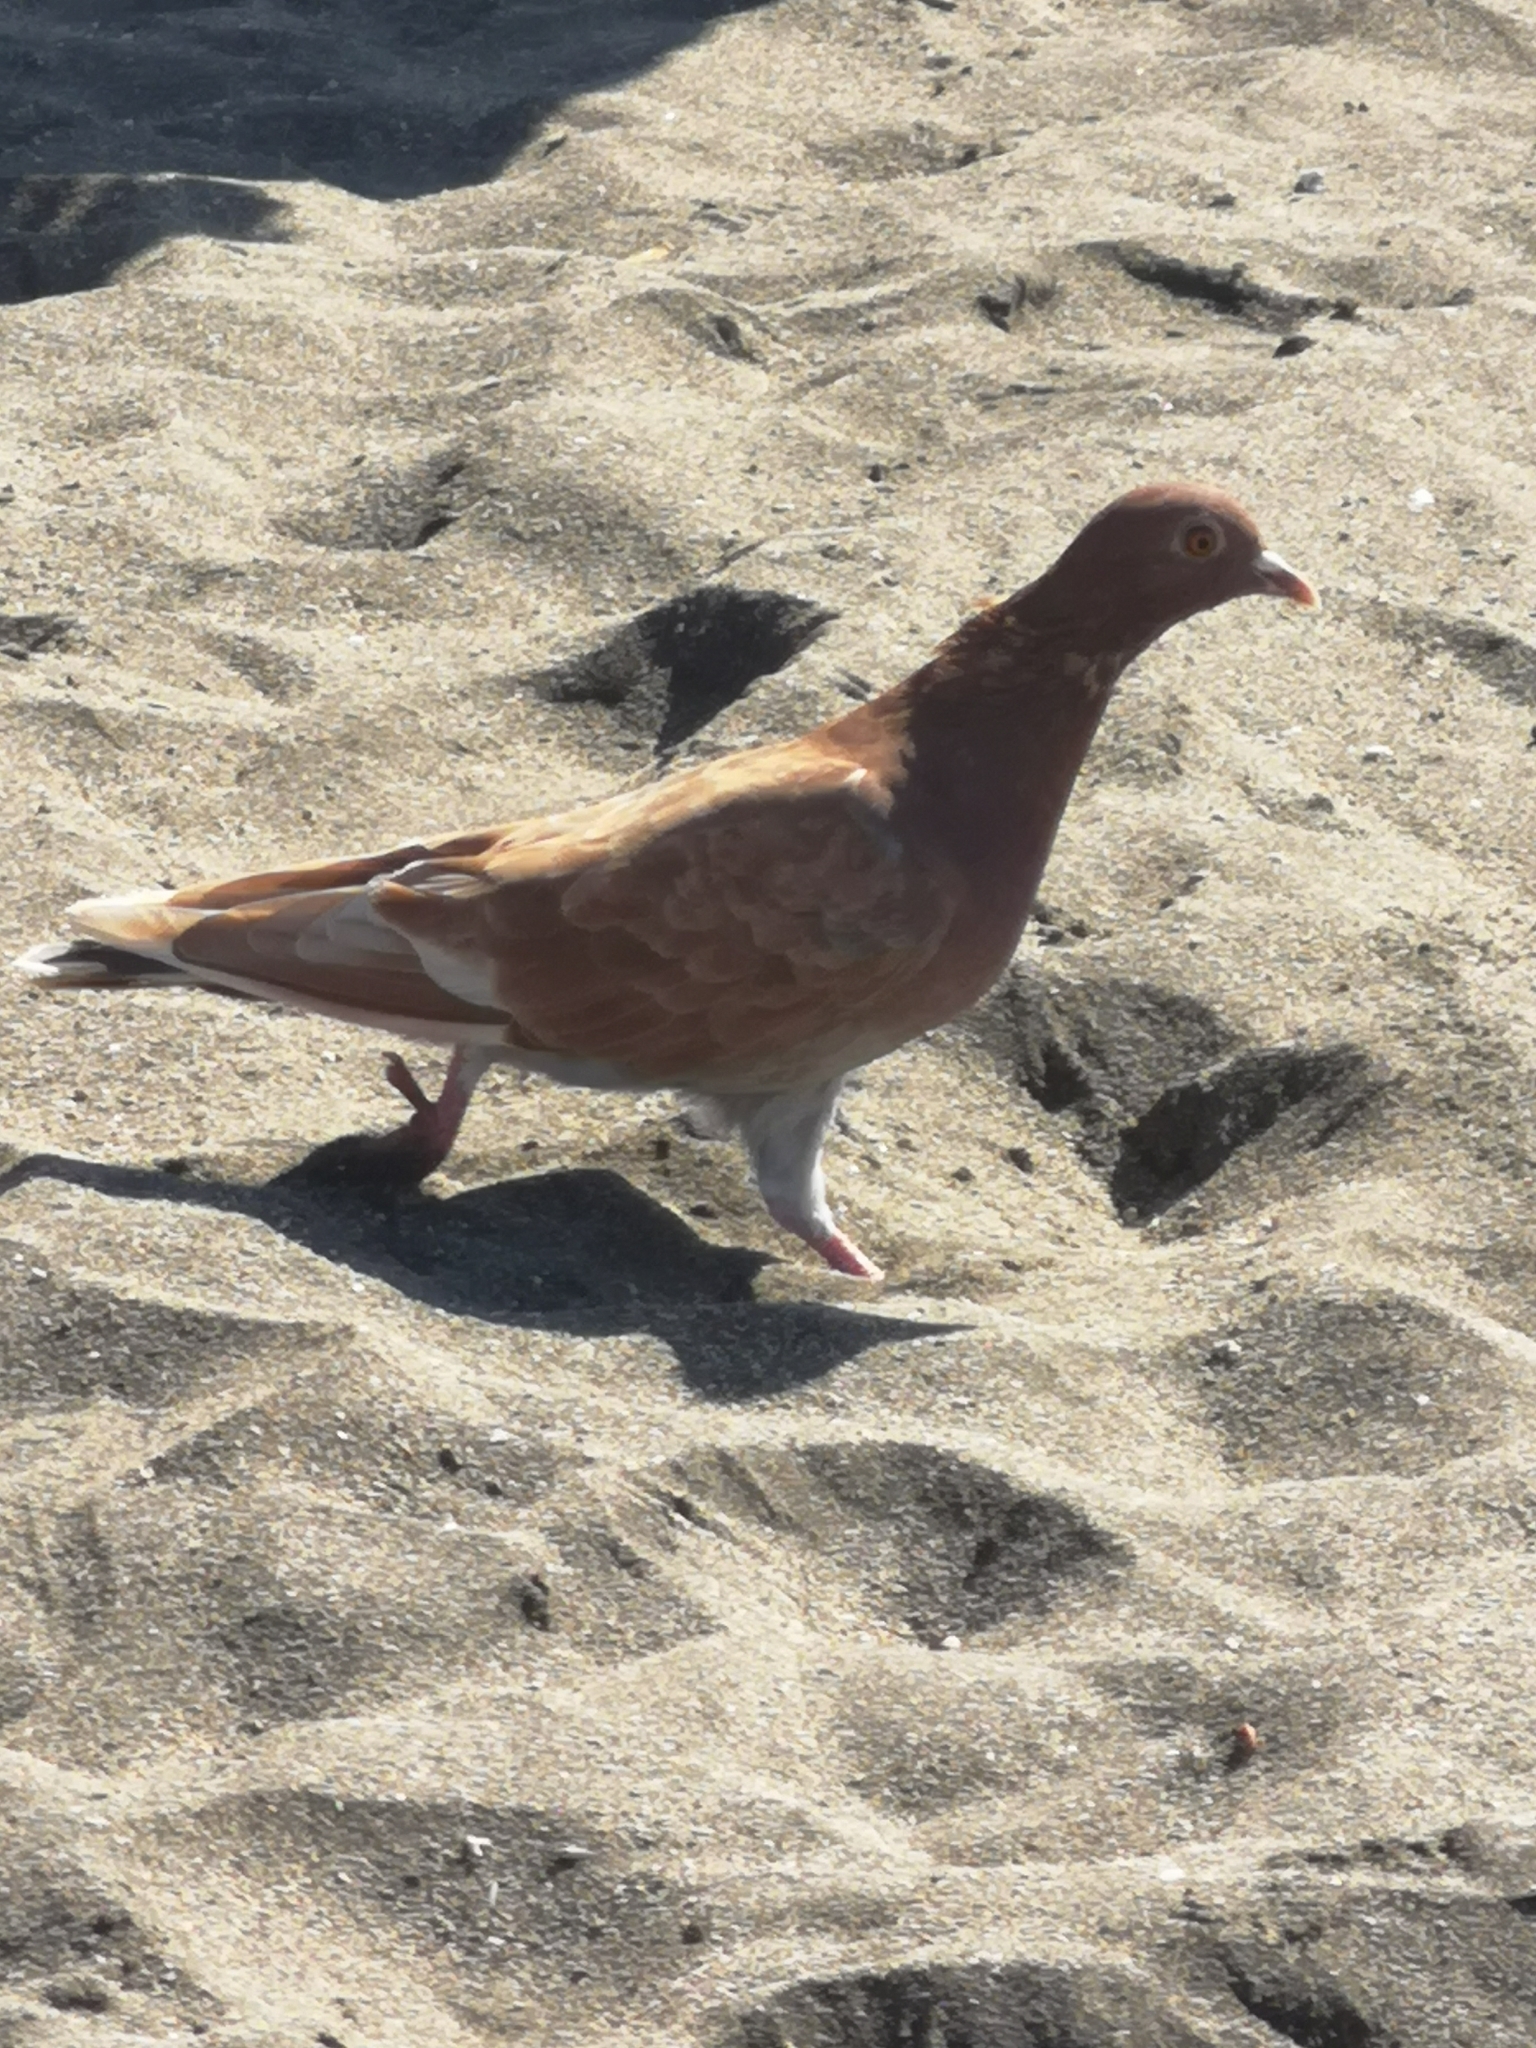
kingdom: Animalia
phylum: Chordata
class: Aves
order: Columbiformes
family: Columbidae
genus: Columba
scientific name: Columba livia
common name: Rock pigeon
